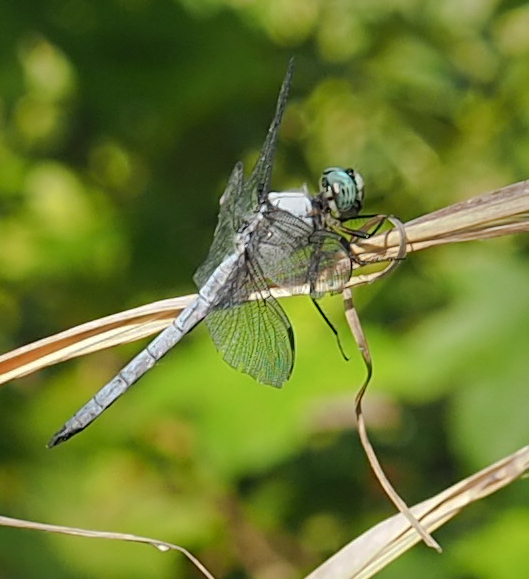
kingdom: Animalia
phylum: Arthropoda
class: Insecta
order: Odonata
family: Libellulidae
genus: Libellula
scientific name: Libellula vibrans
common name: Great blue skimmer
